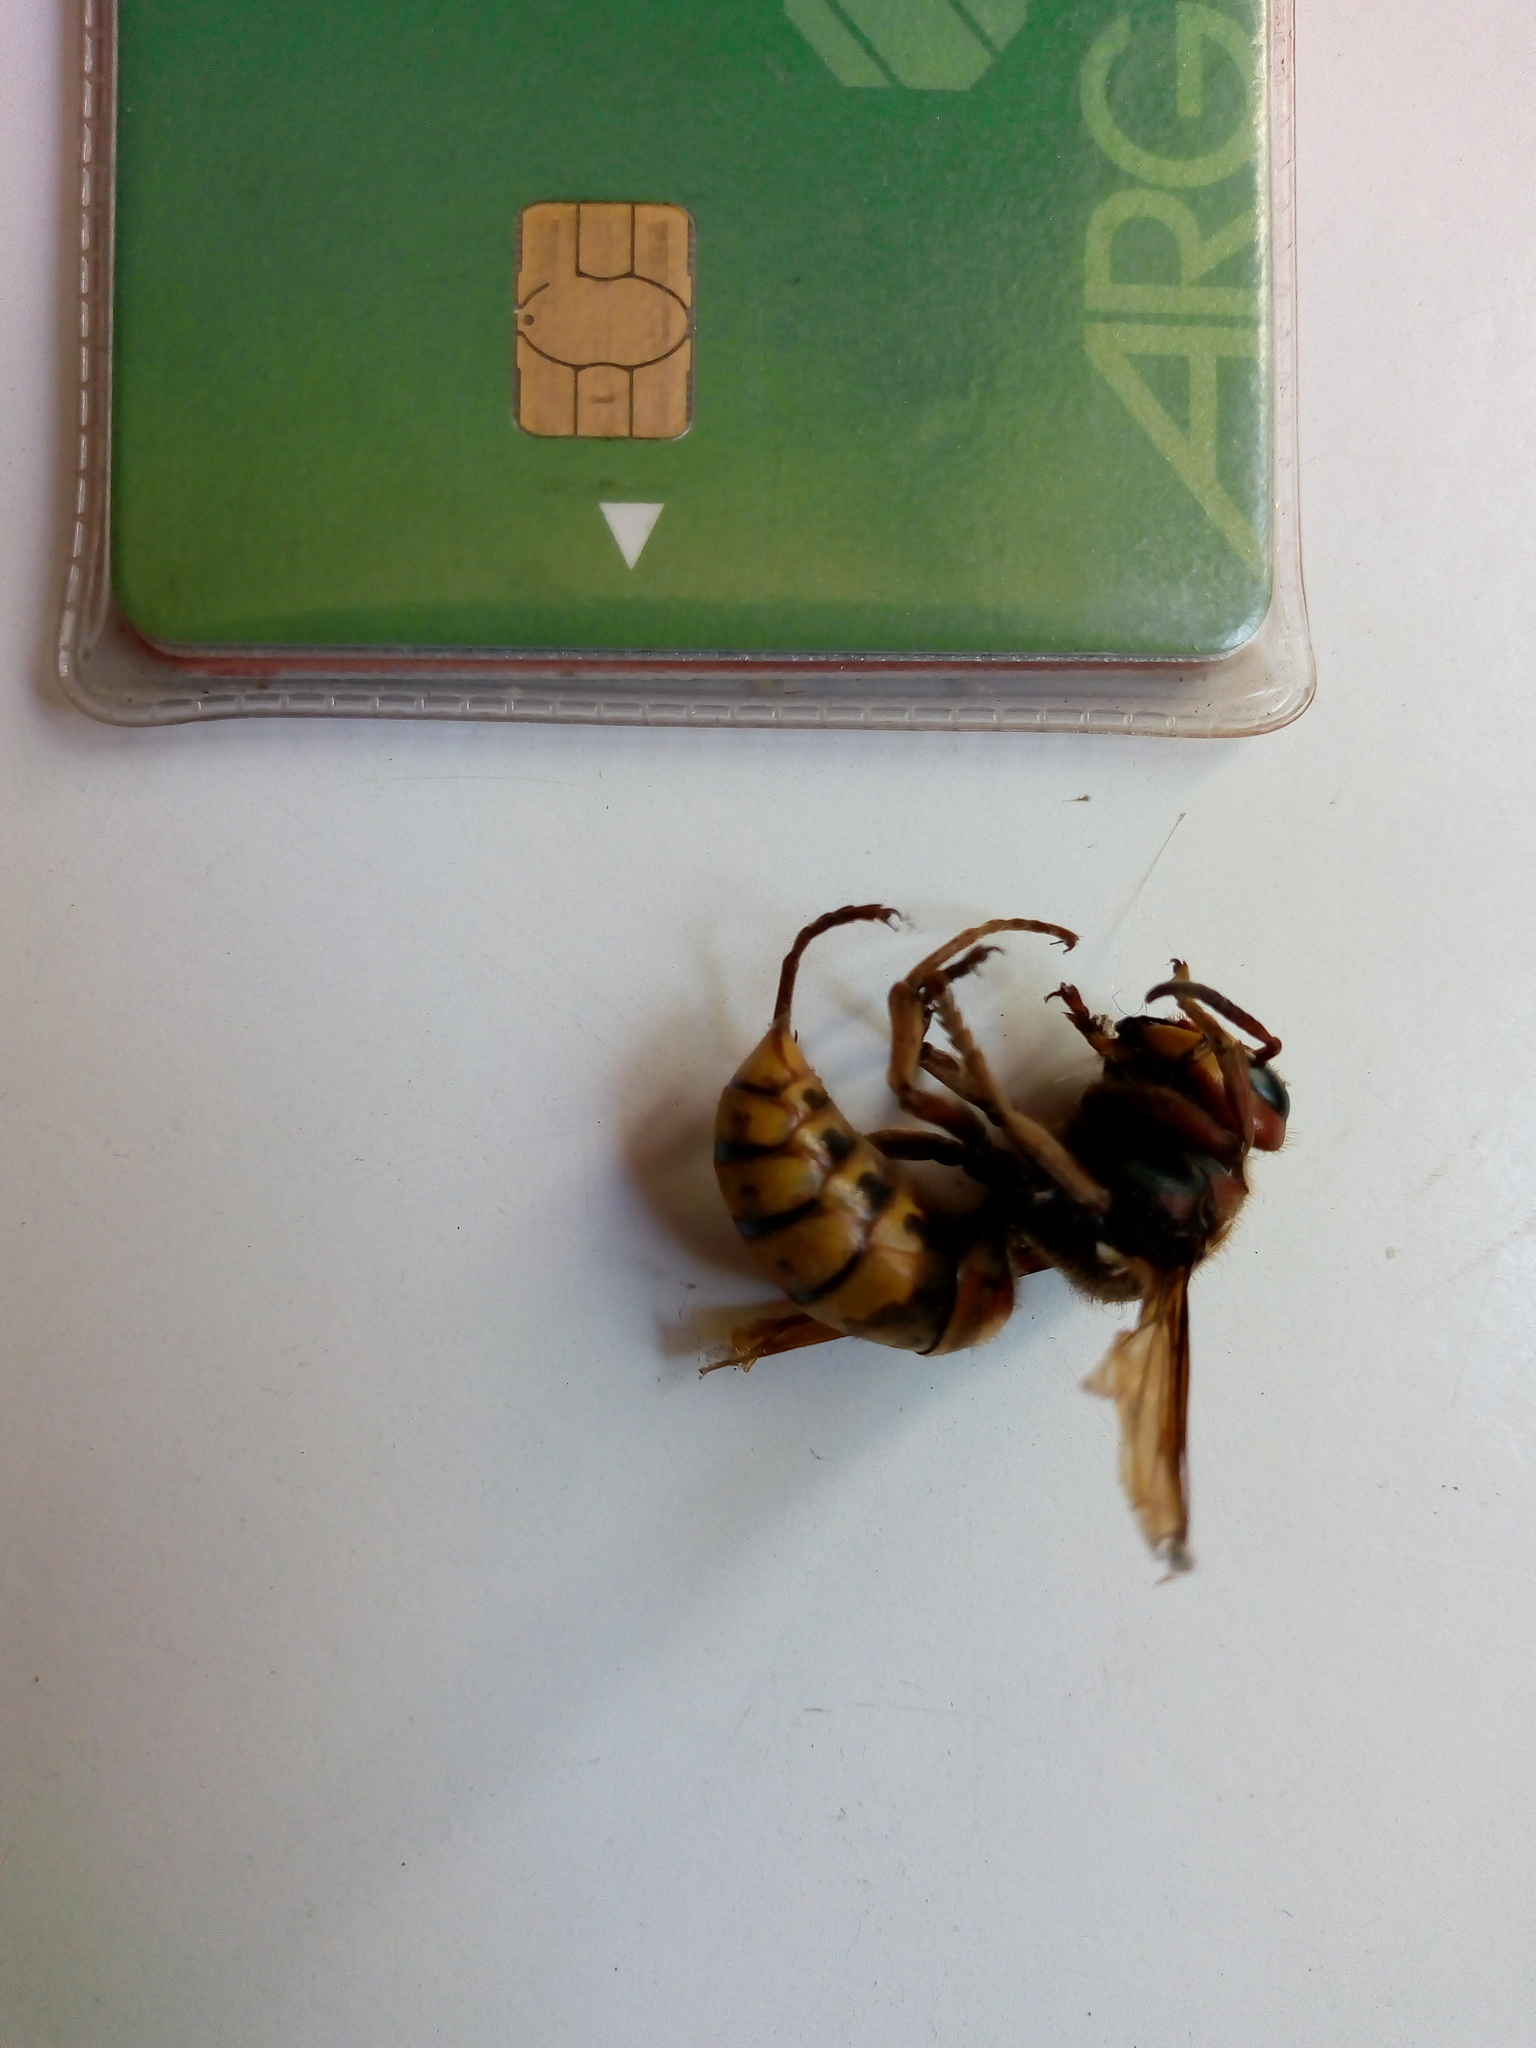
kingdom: Animalia
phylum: Arthropoda
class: Insecta
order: Hymenoptera
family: Vespidae
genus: Vespa
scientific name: Vespa crabro
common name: Hornet
